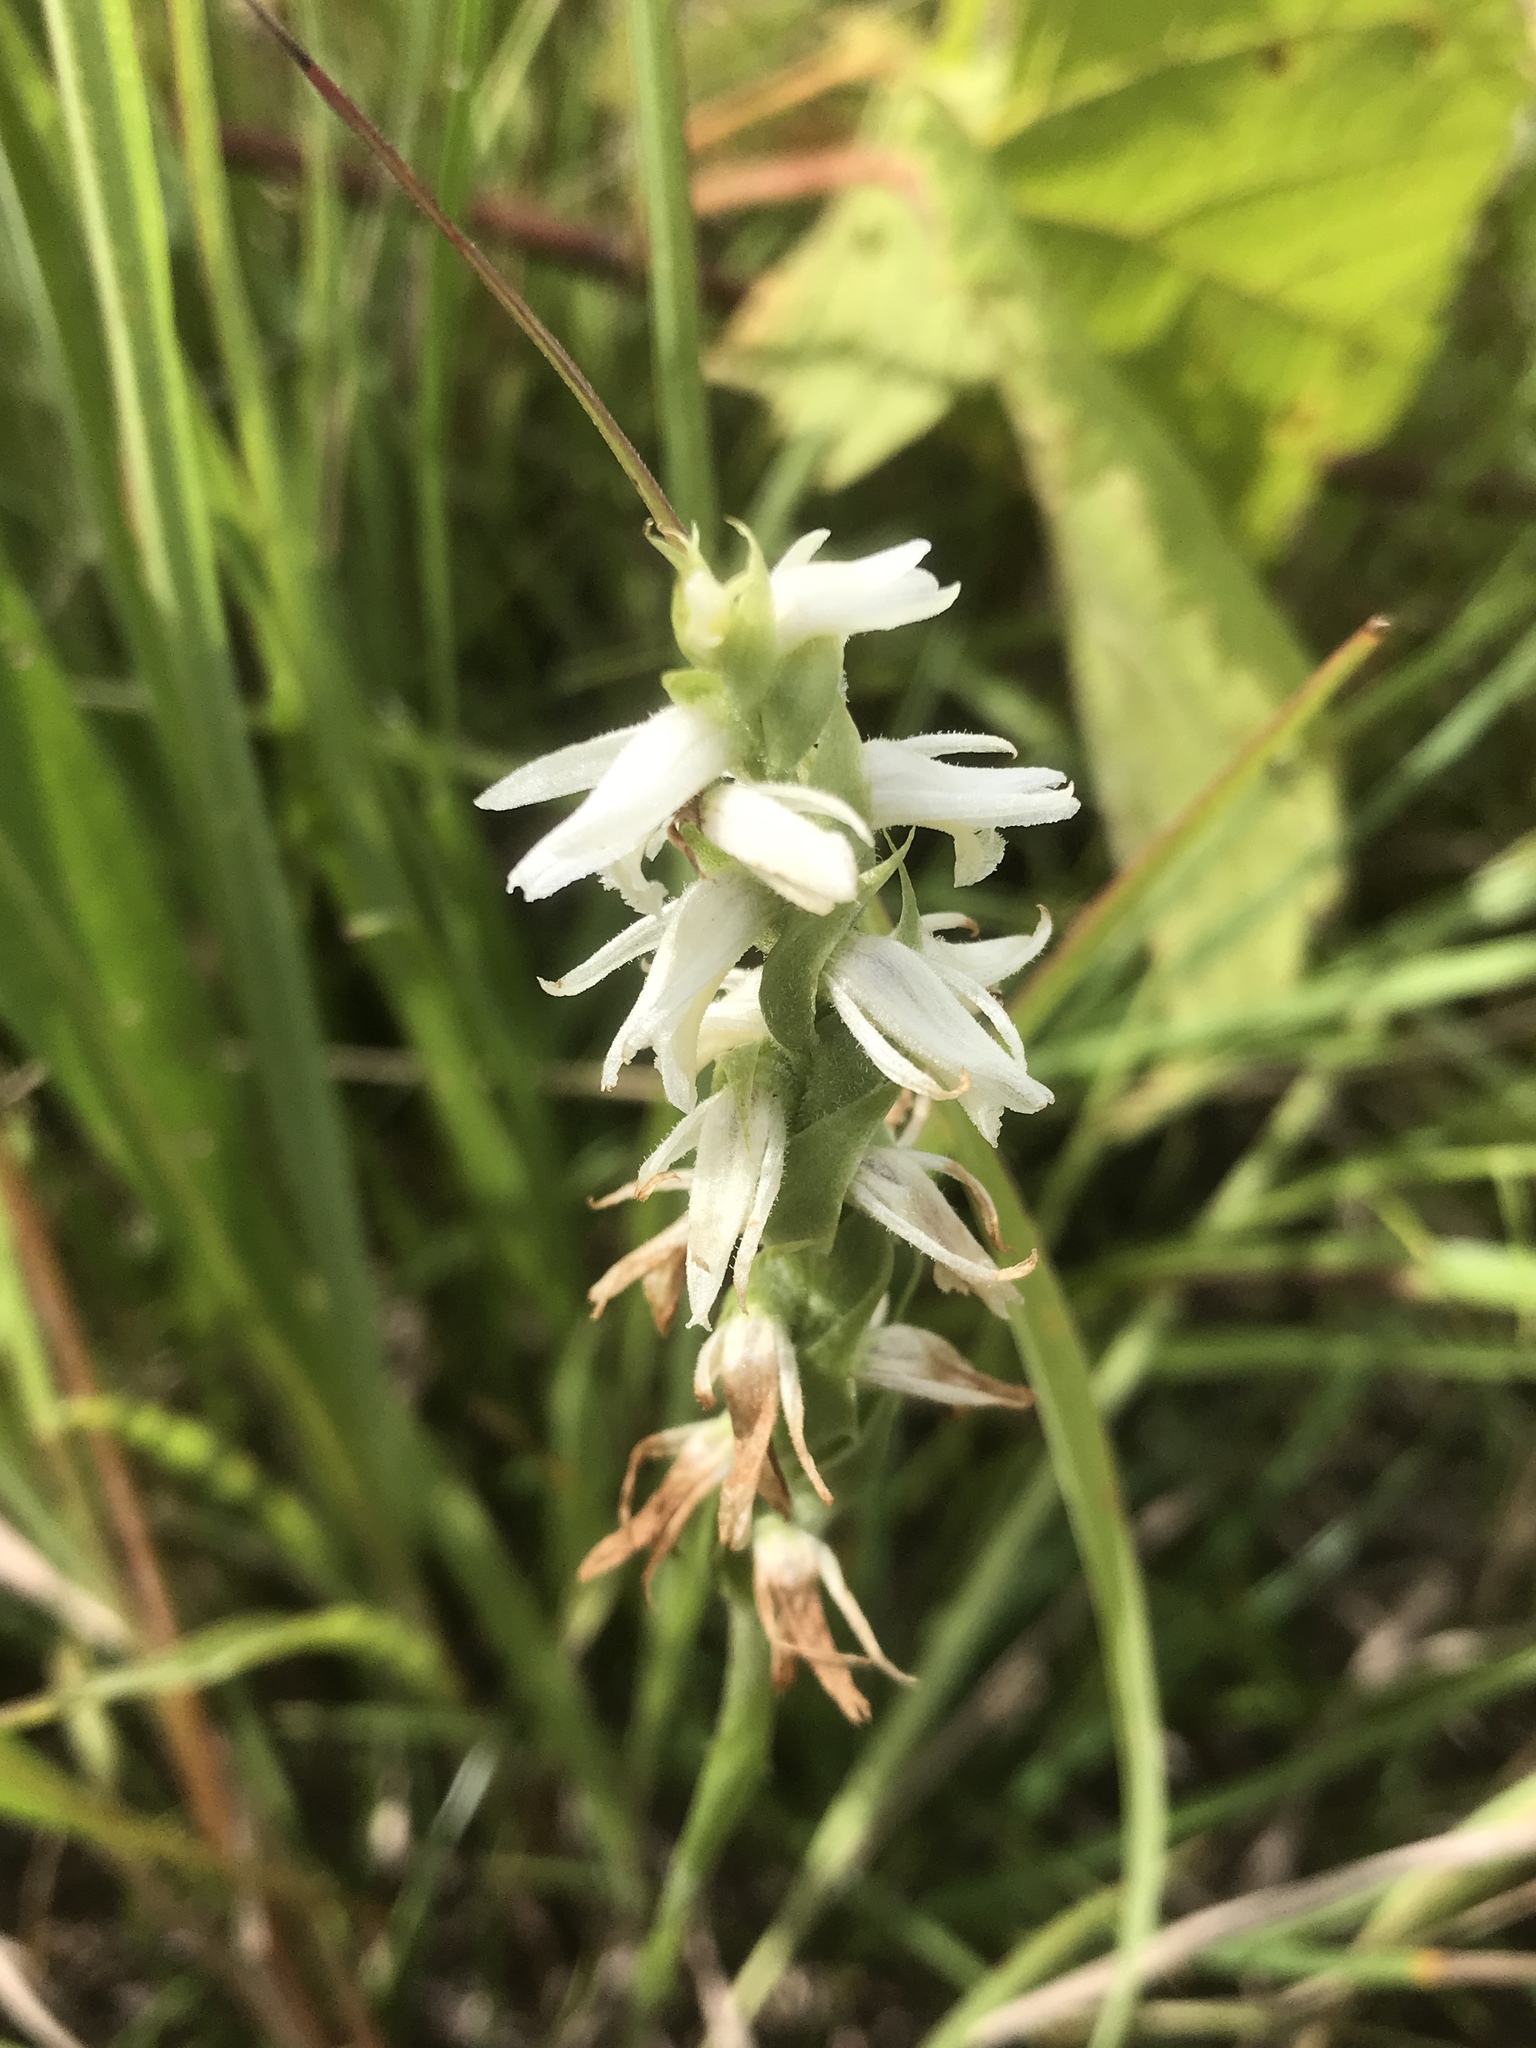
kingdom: Plantae
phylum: Tracheophyta
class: Liliopsida
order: Asparagales
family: Orchidaceae
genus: Spiranthes
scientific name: Spiranthes magnicamporum
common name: Great plains ladies'-tresses
